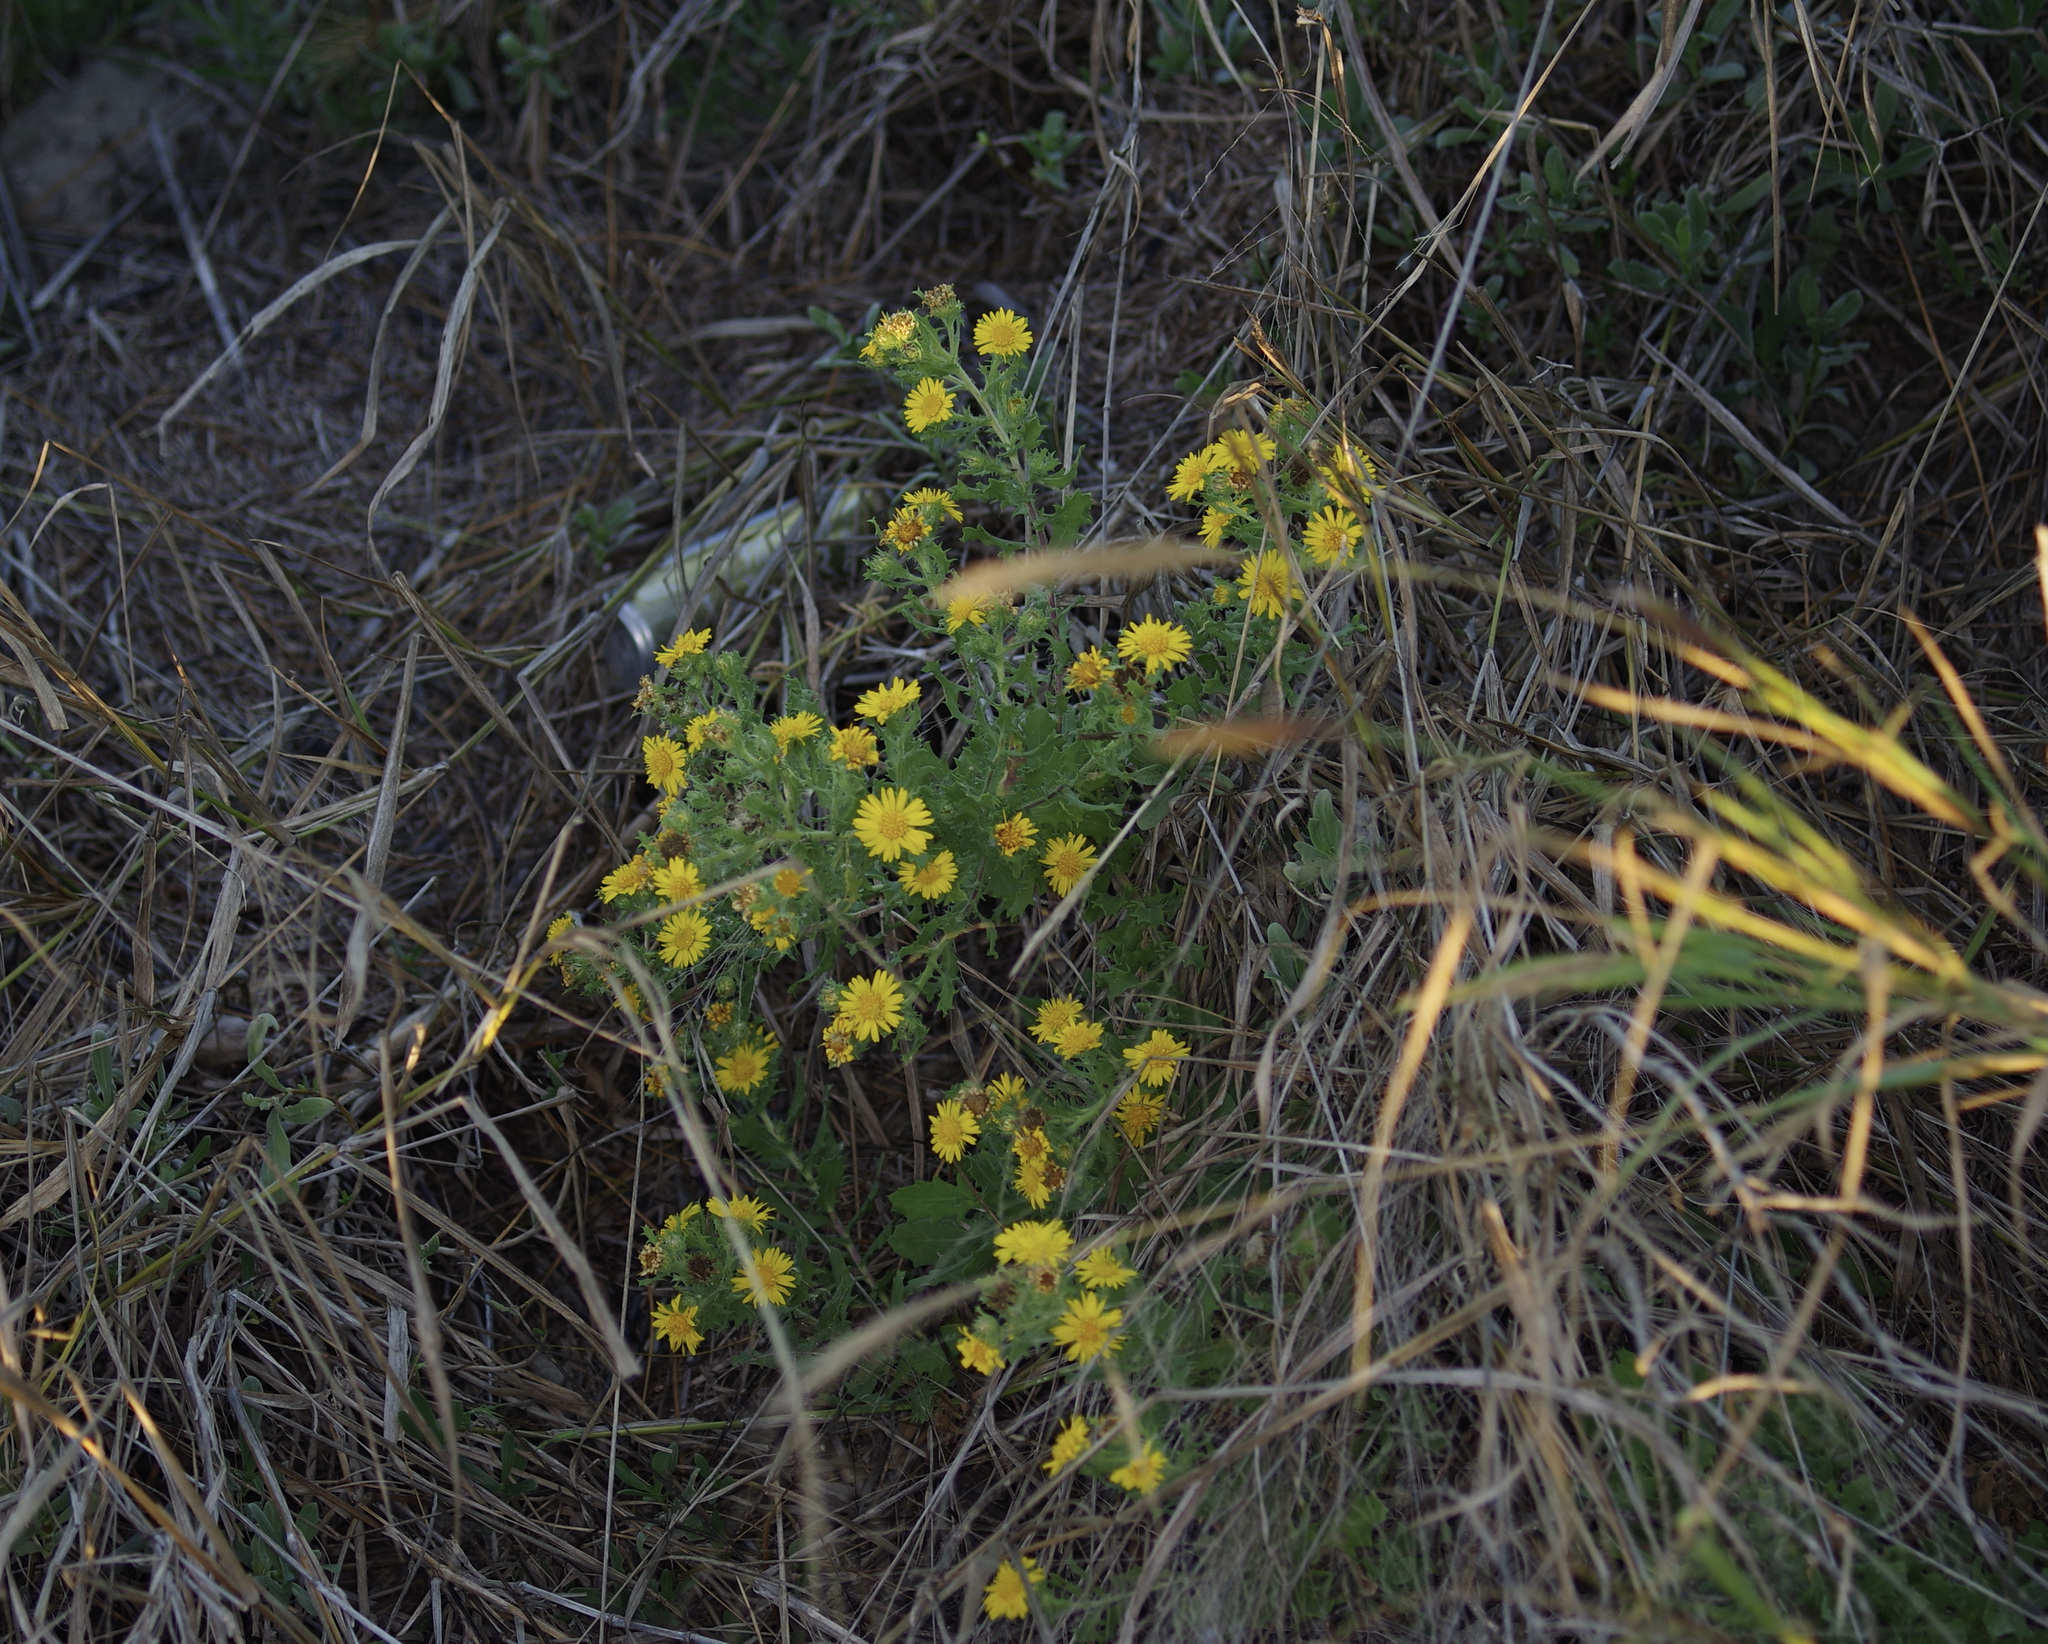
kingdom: Plantae
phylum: Tracheophyta
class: Magnoliopsida
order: Asterales
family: Asteraceae
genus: Rayjacksonia
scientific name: Rayjacksonia phyllocephala
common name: Gulf coast camphor daisy
